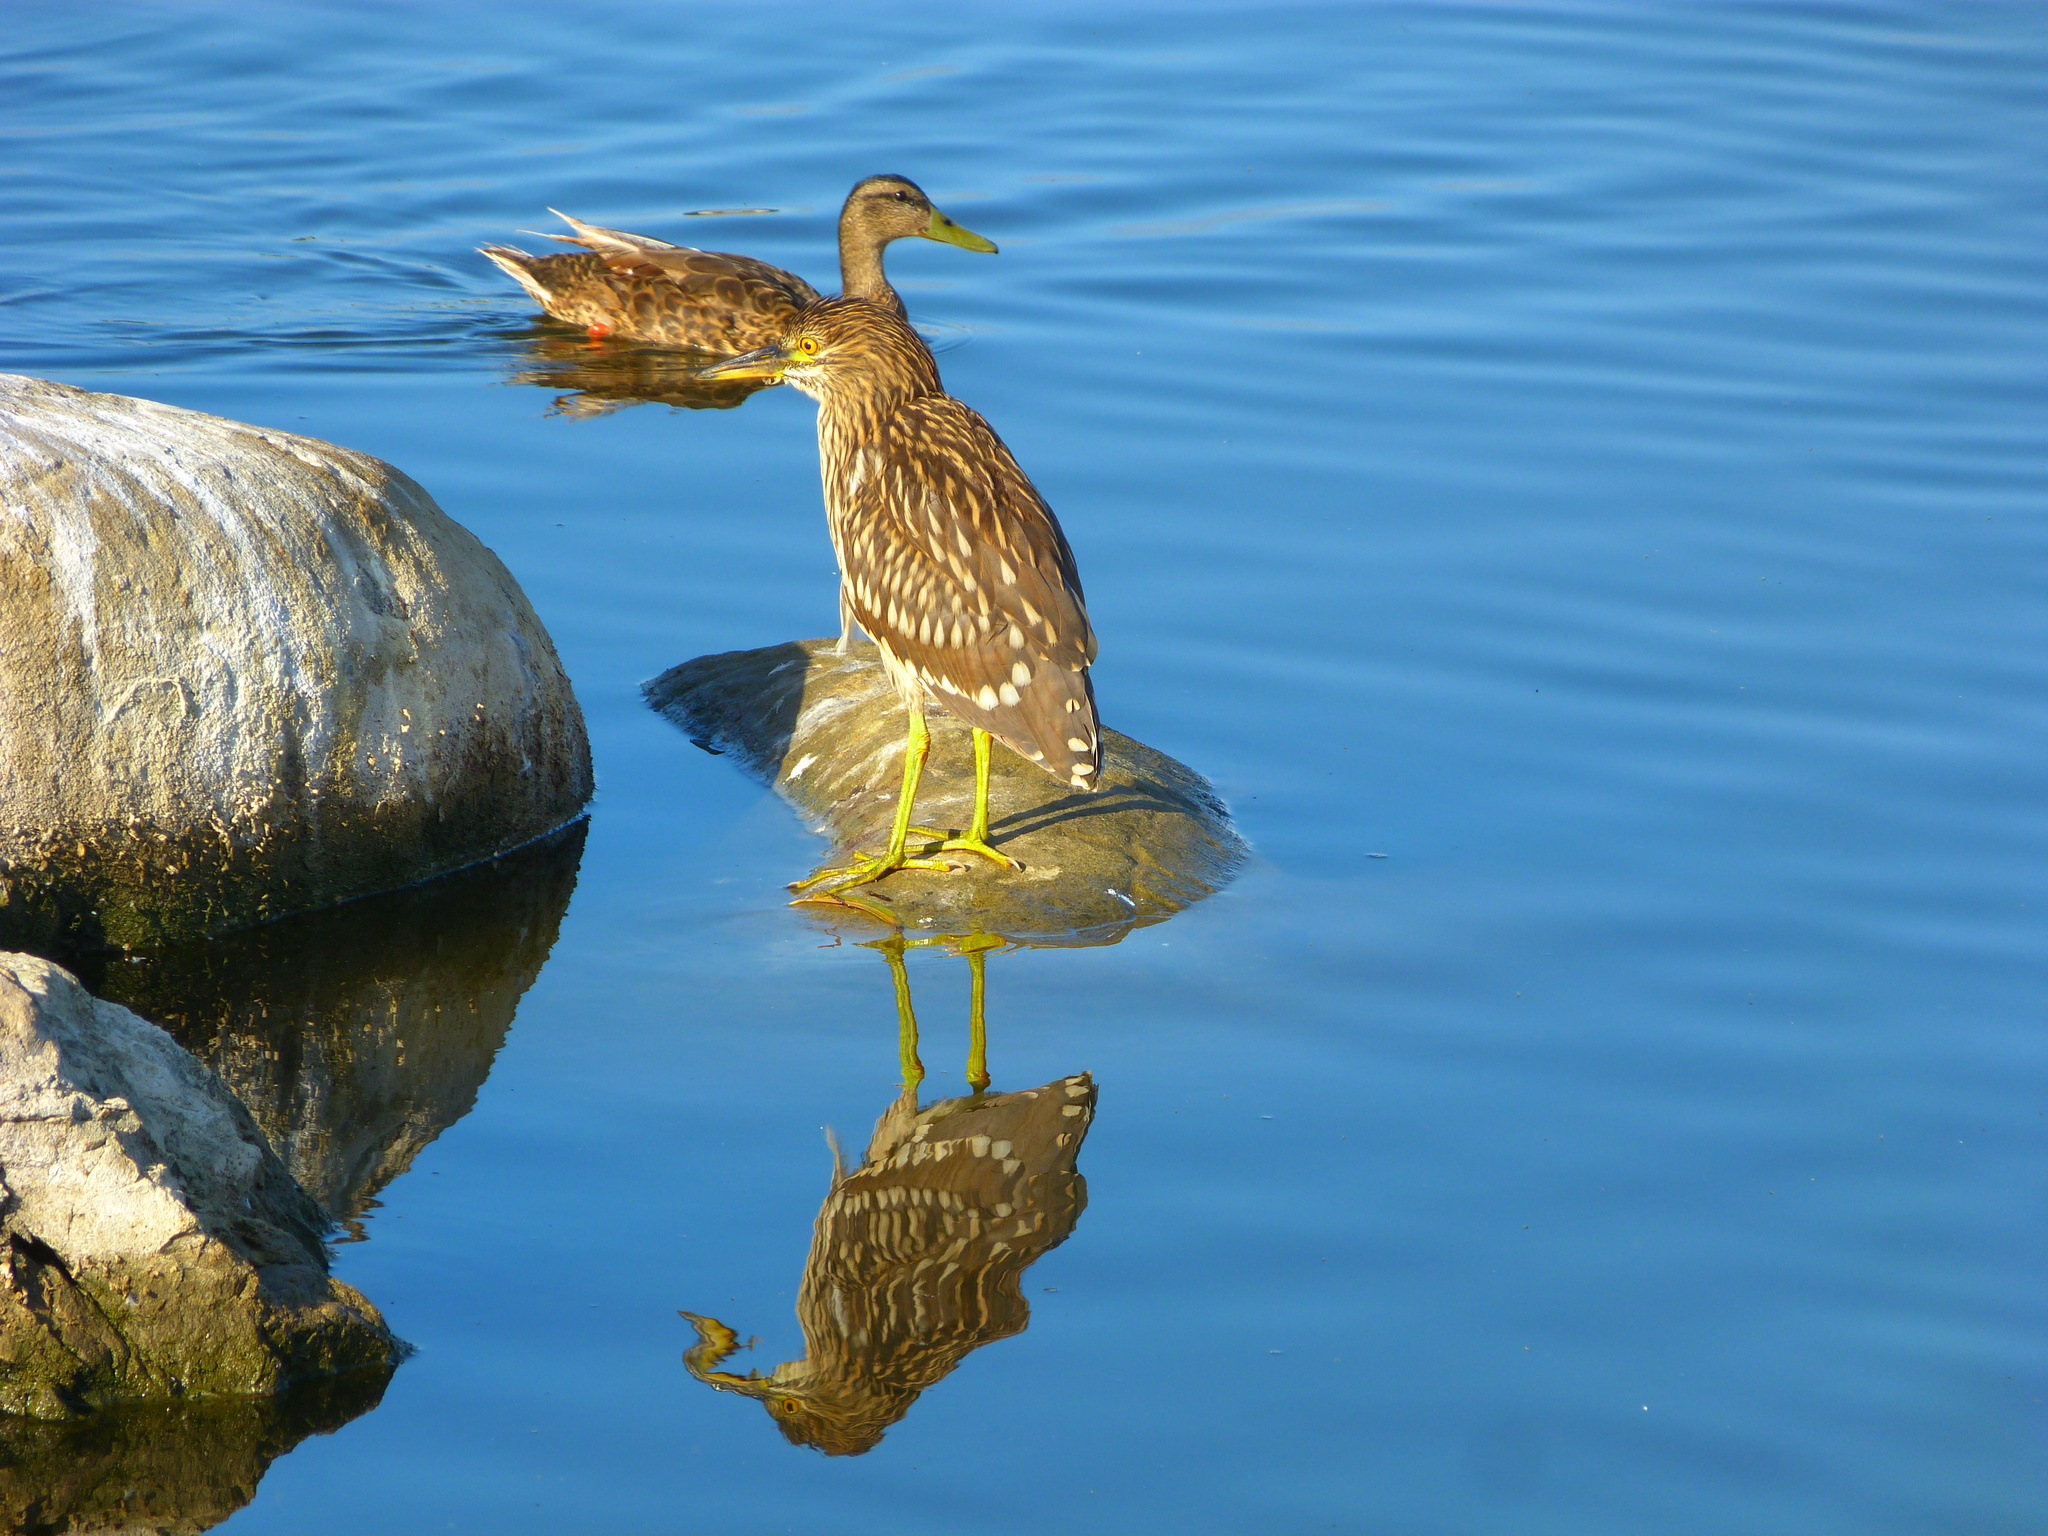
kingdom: Animalia
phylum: Chordata
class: Aves
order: Pelecaniformes
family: Ardeidae
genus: Nycticorax
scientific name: Nycticorax nycticorax
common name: Black-crowned night heron
